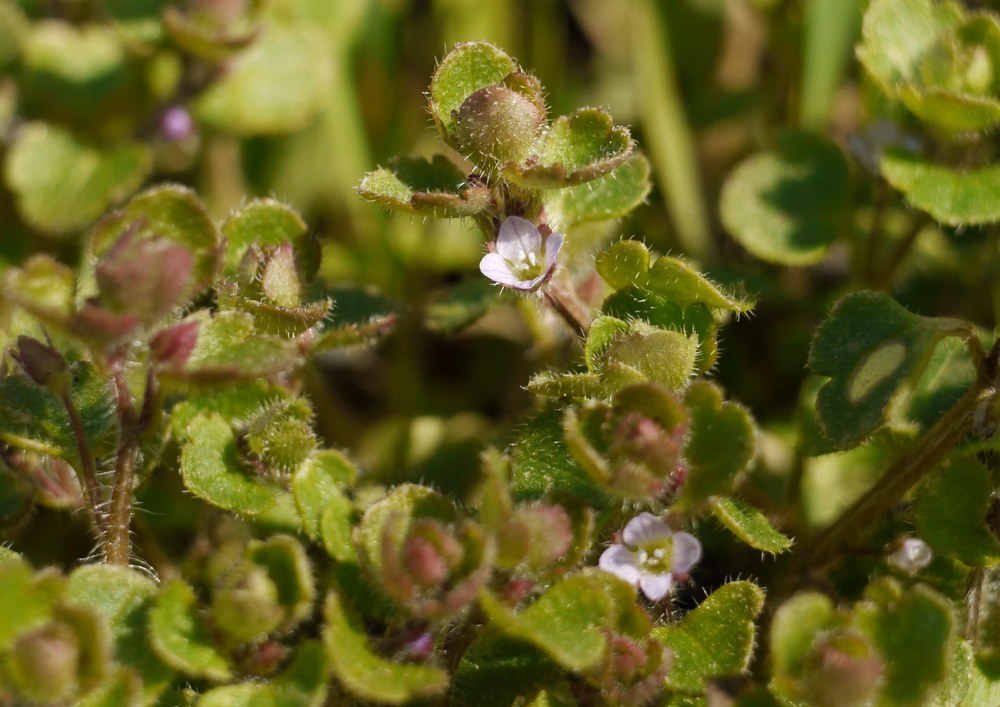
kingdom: Plantae
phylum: Tracheophyta
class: Magnoliopsida
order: Lamiales
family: Plantaginaceae
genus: Veronica
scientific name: Veronica sublobata
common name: False ivy-leaved speedwell
